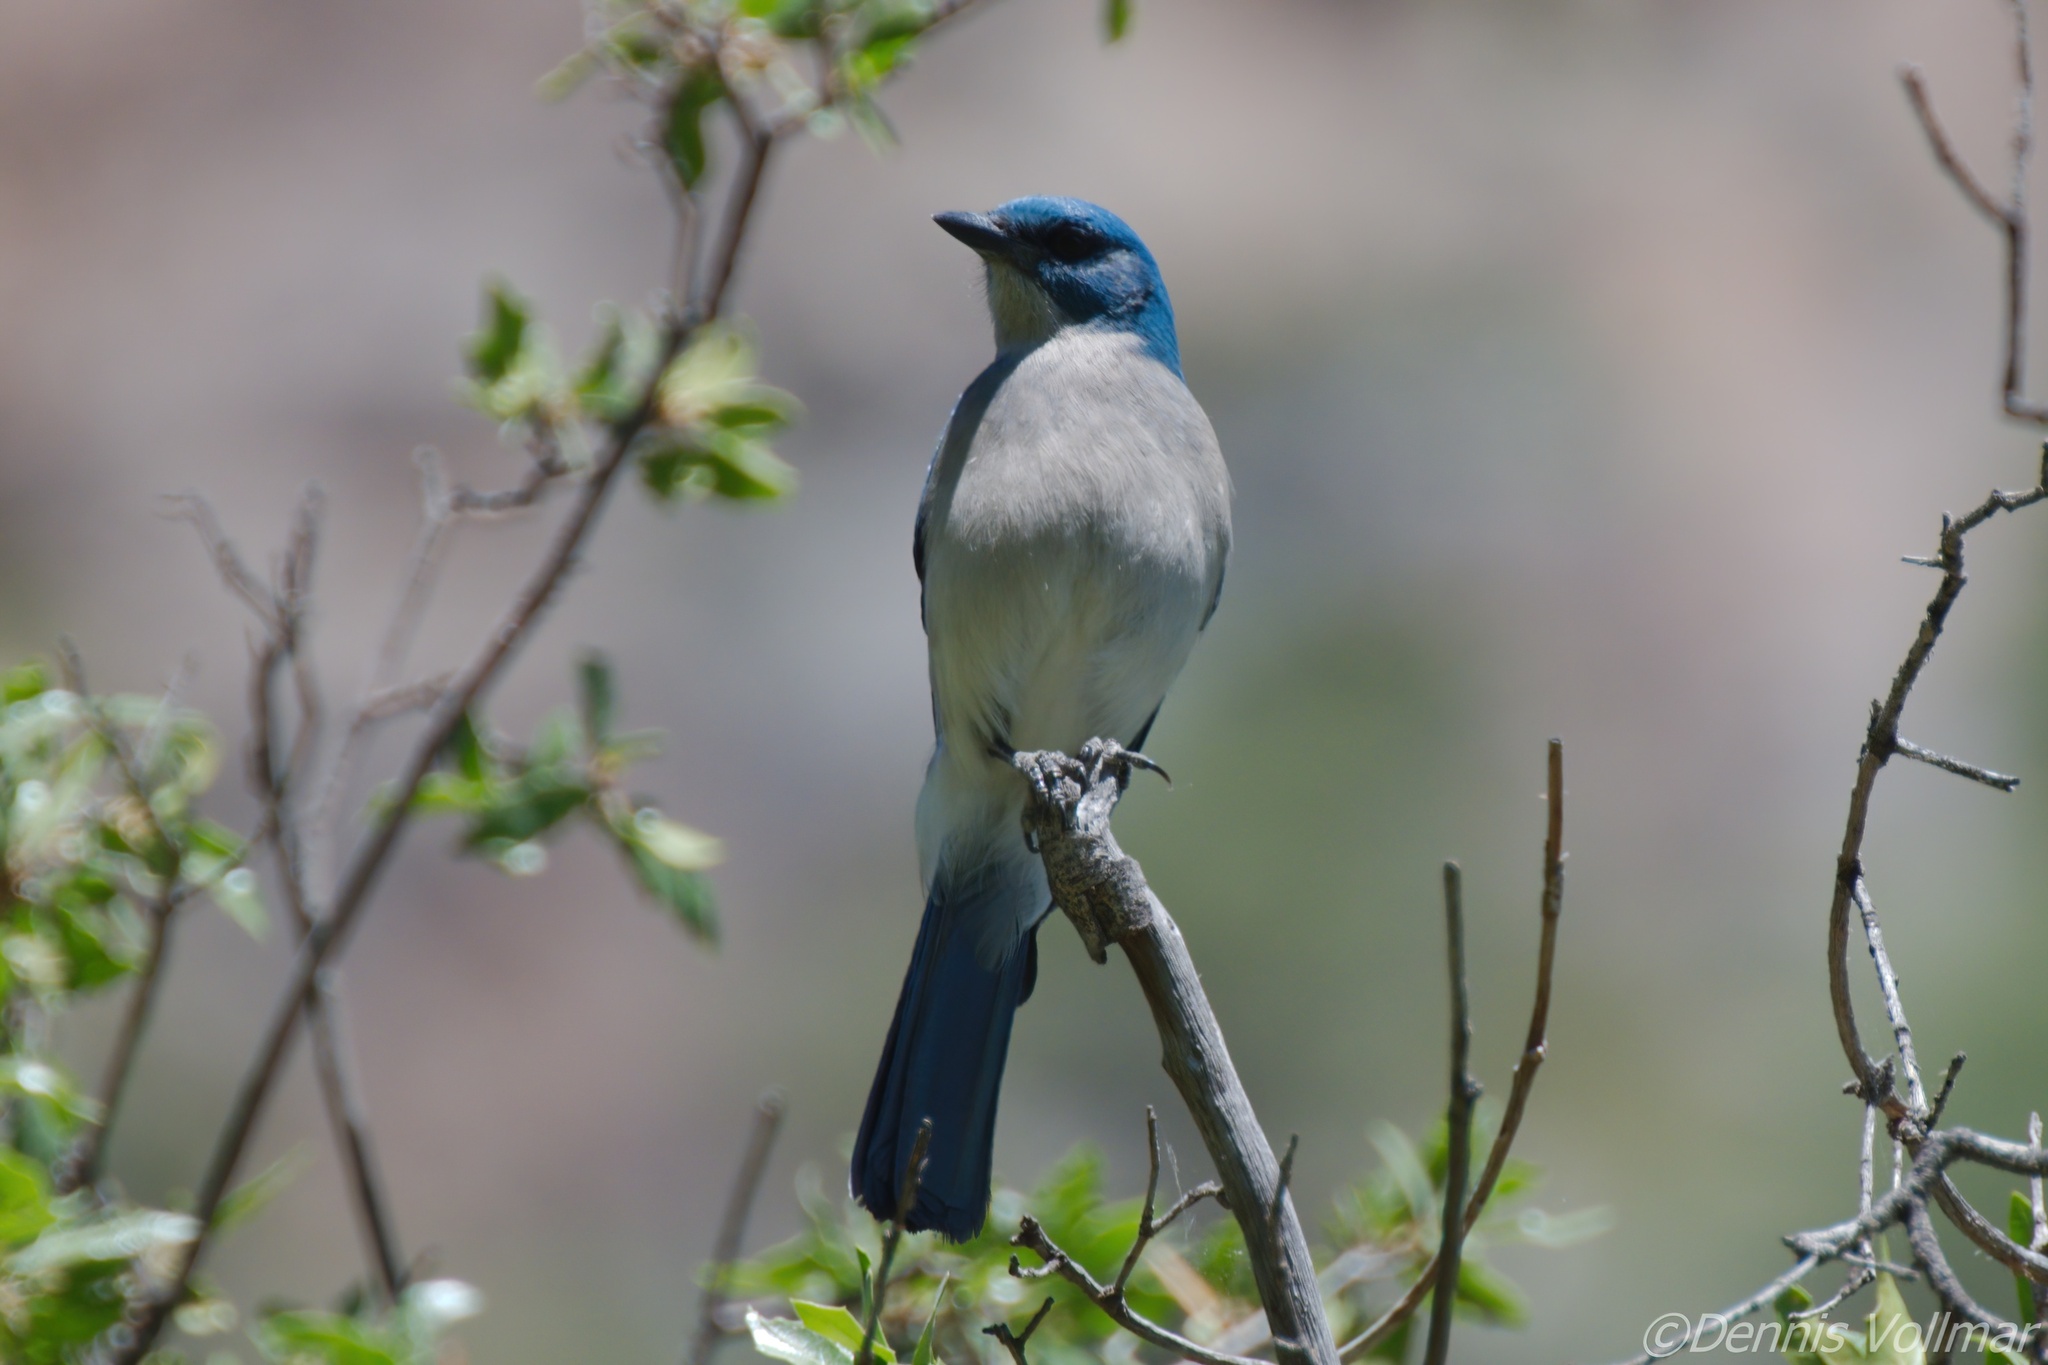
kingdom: Animalia
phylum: Chordata
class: Aves
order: Passeriformes
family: Corvidae
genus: Aphelocoma
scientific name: Aphelocoma wollweberi
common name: Mexican jay
